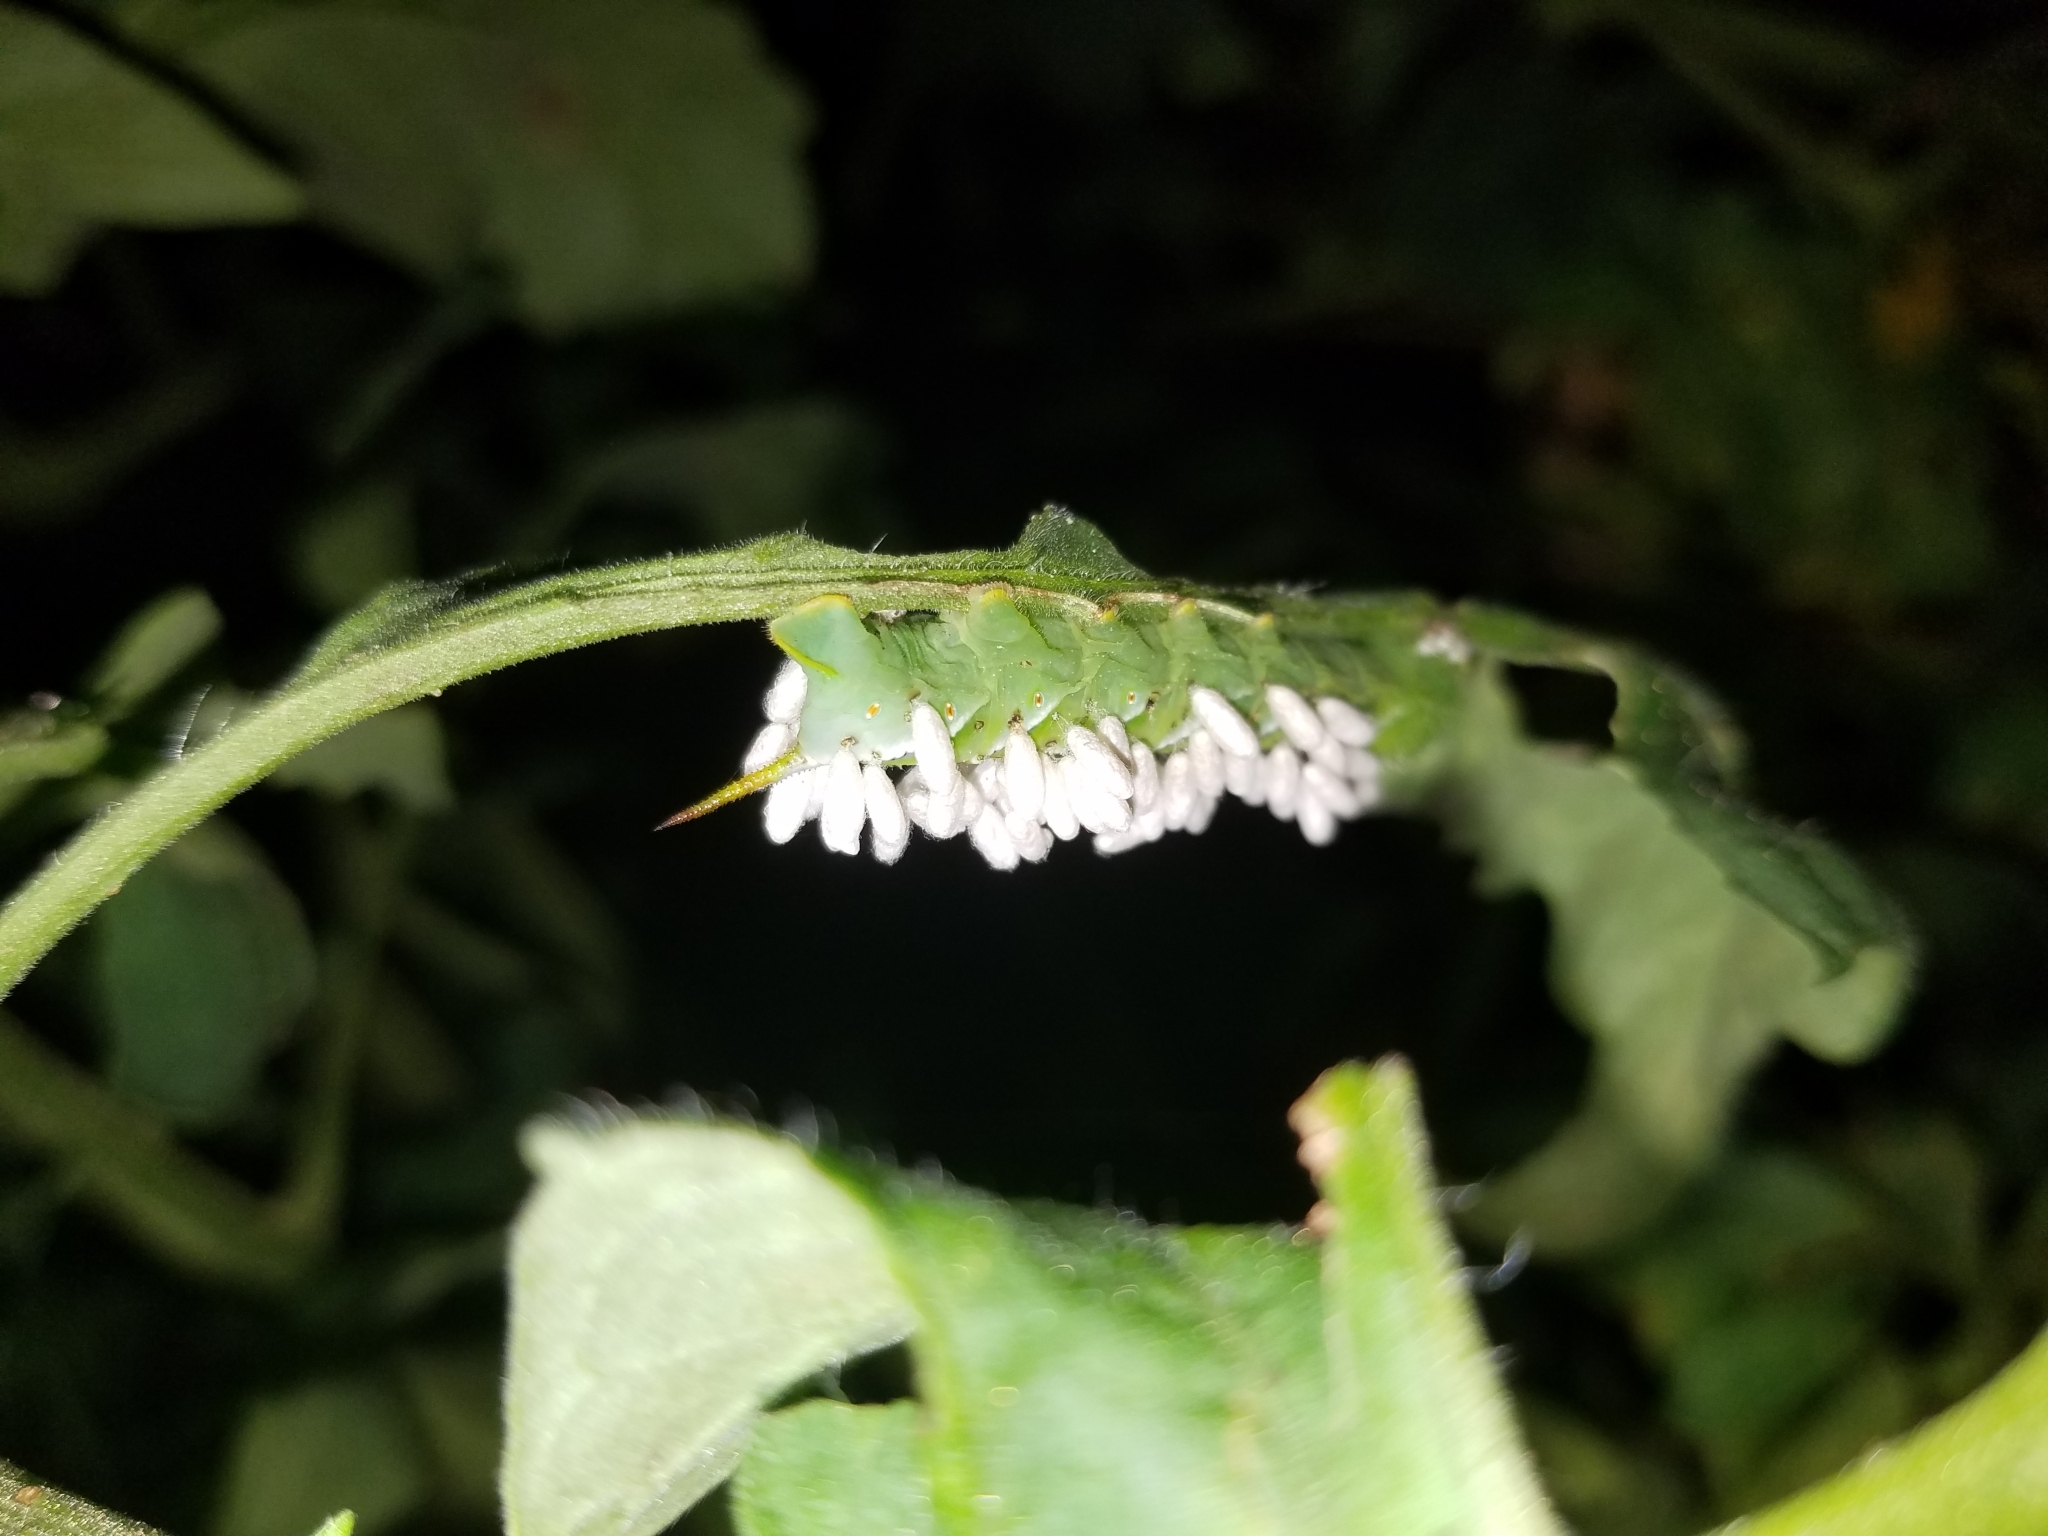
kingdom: Animalia
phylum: Arthropoda
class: Insecta
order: Hymenoptera
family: Braconidae
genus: Cotesia
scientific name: Cotesia congregata
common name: Hornworm parasitoid wasp
